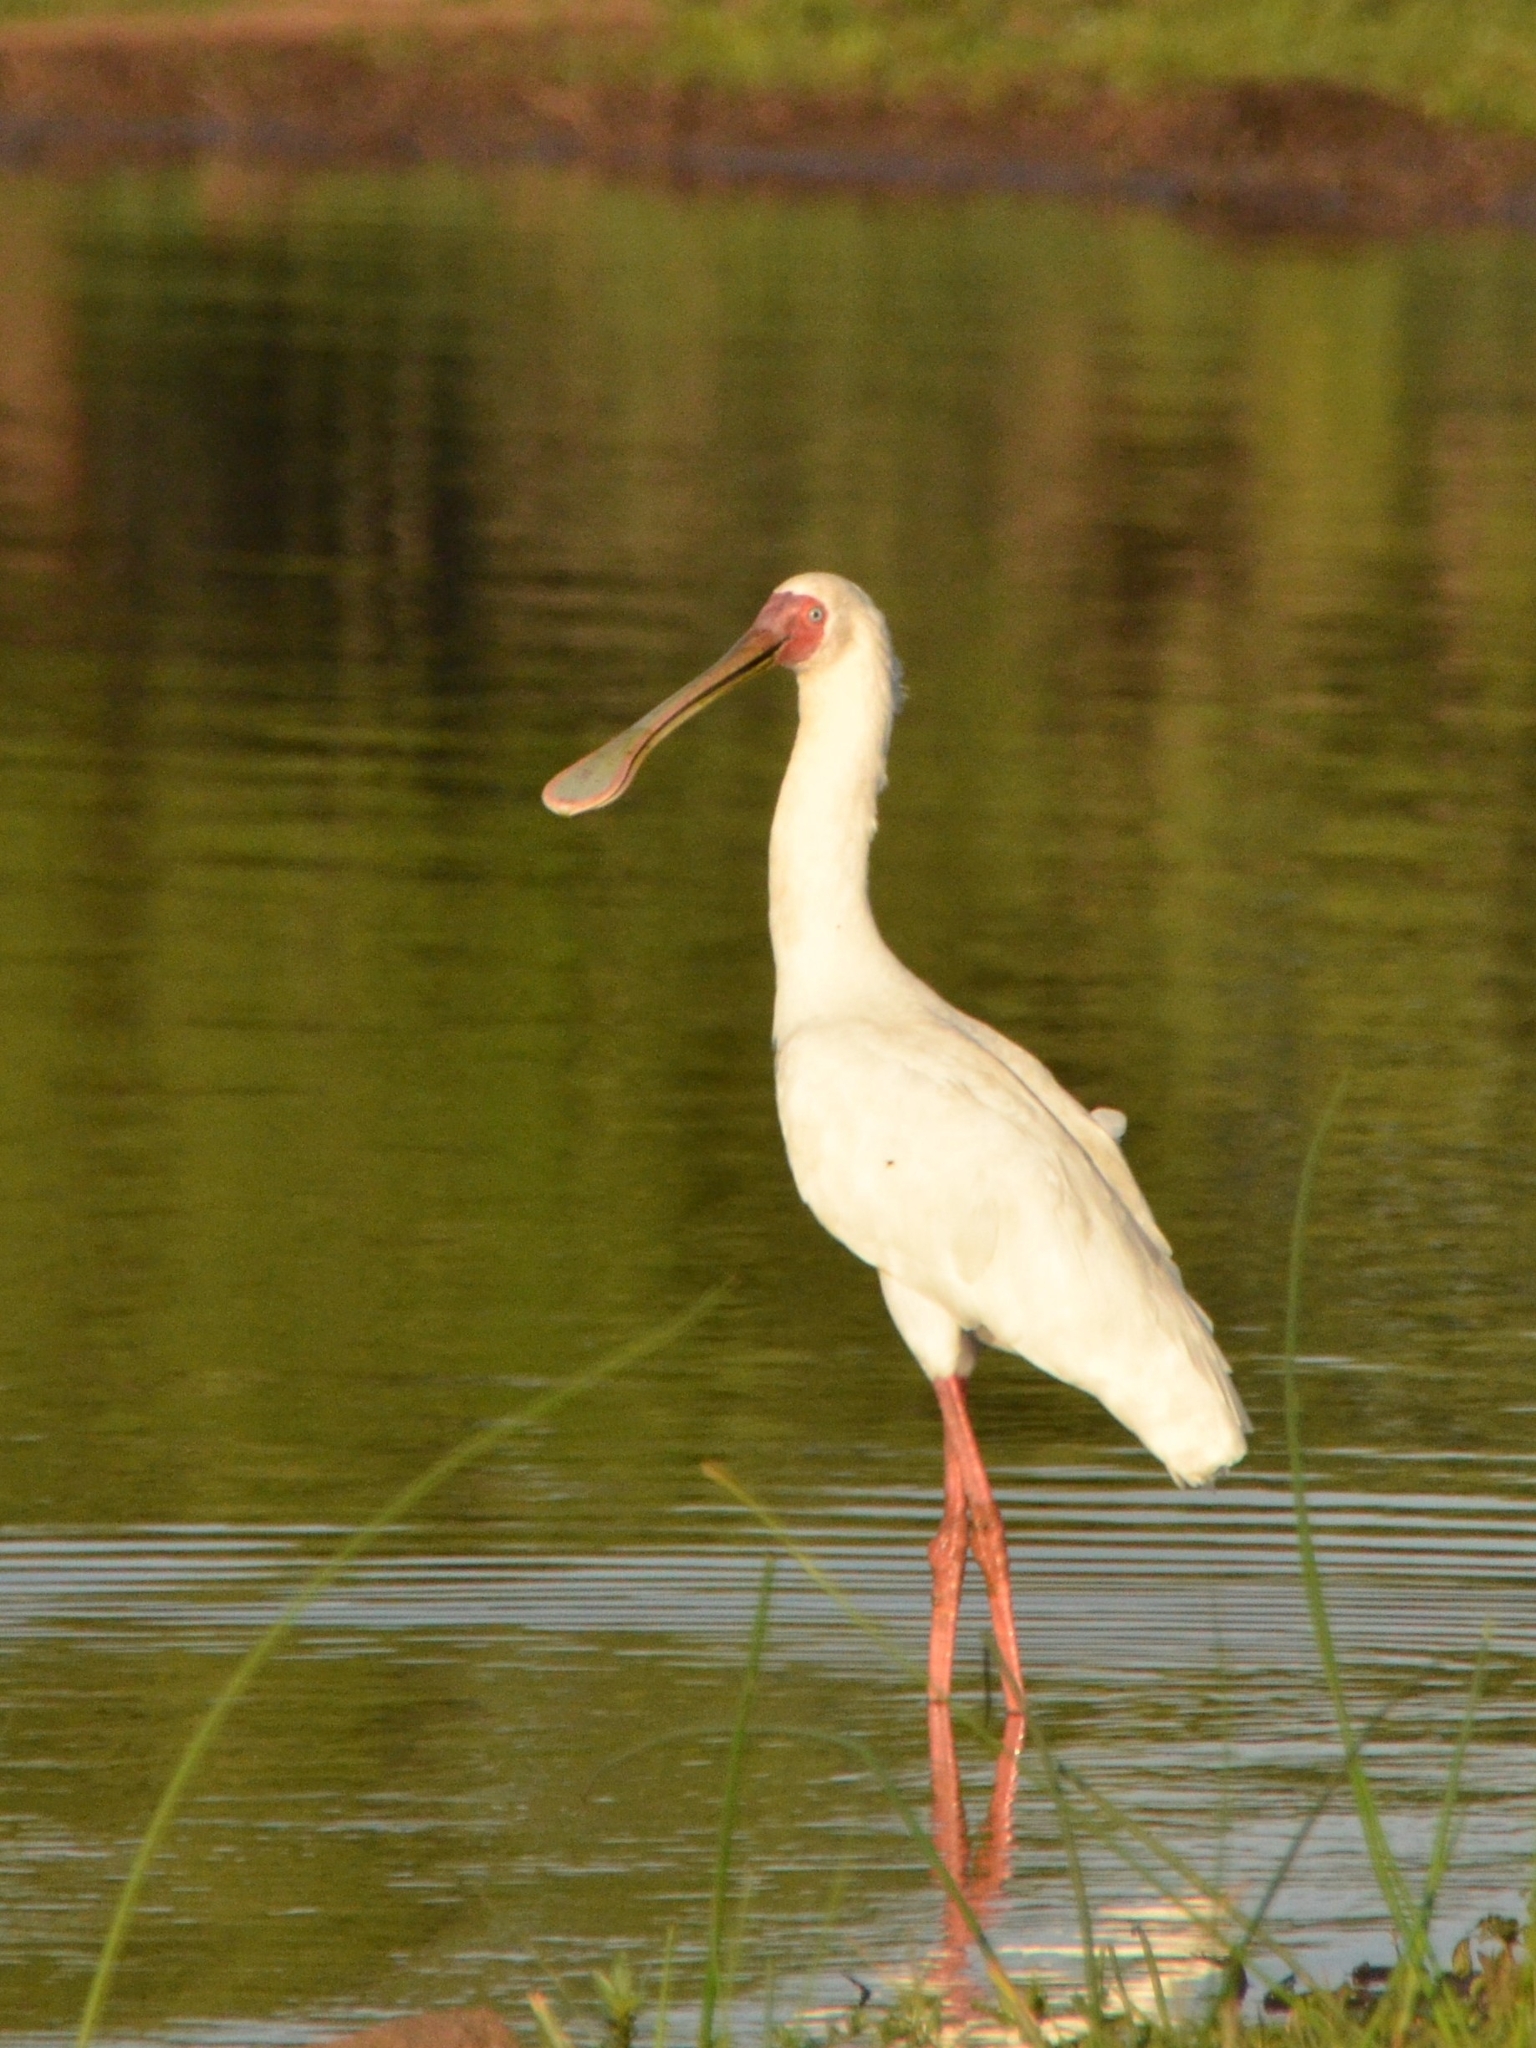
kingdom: Animalia
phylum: Chordata
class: Aves
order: Pelecaniformes
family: Threskiornithidae
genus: Platalea
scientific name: Platalea alba
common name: African spoonbill
